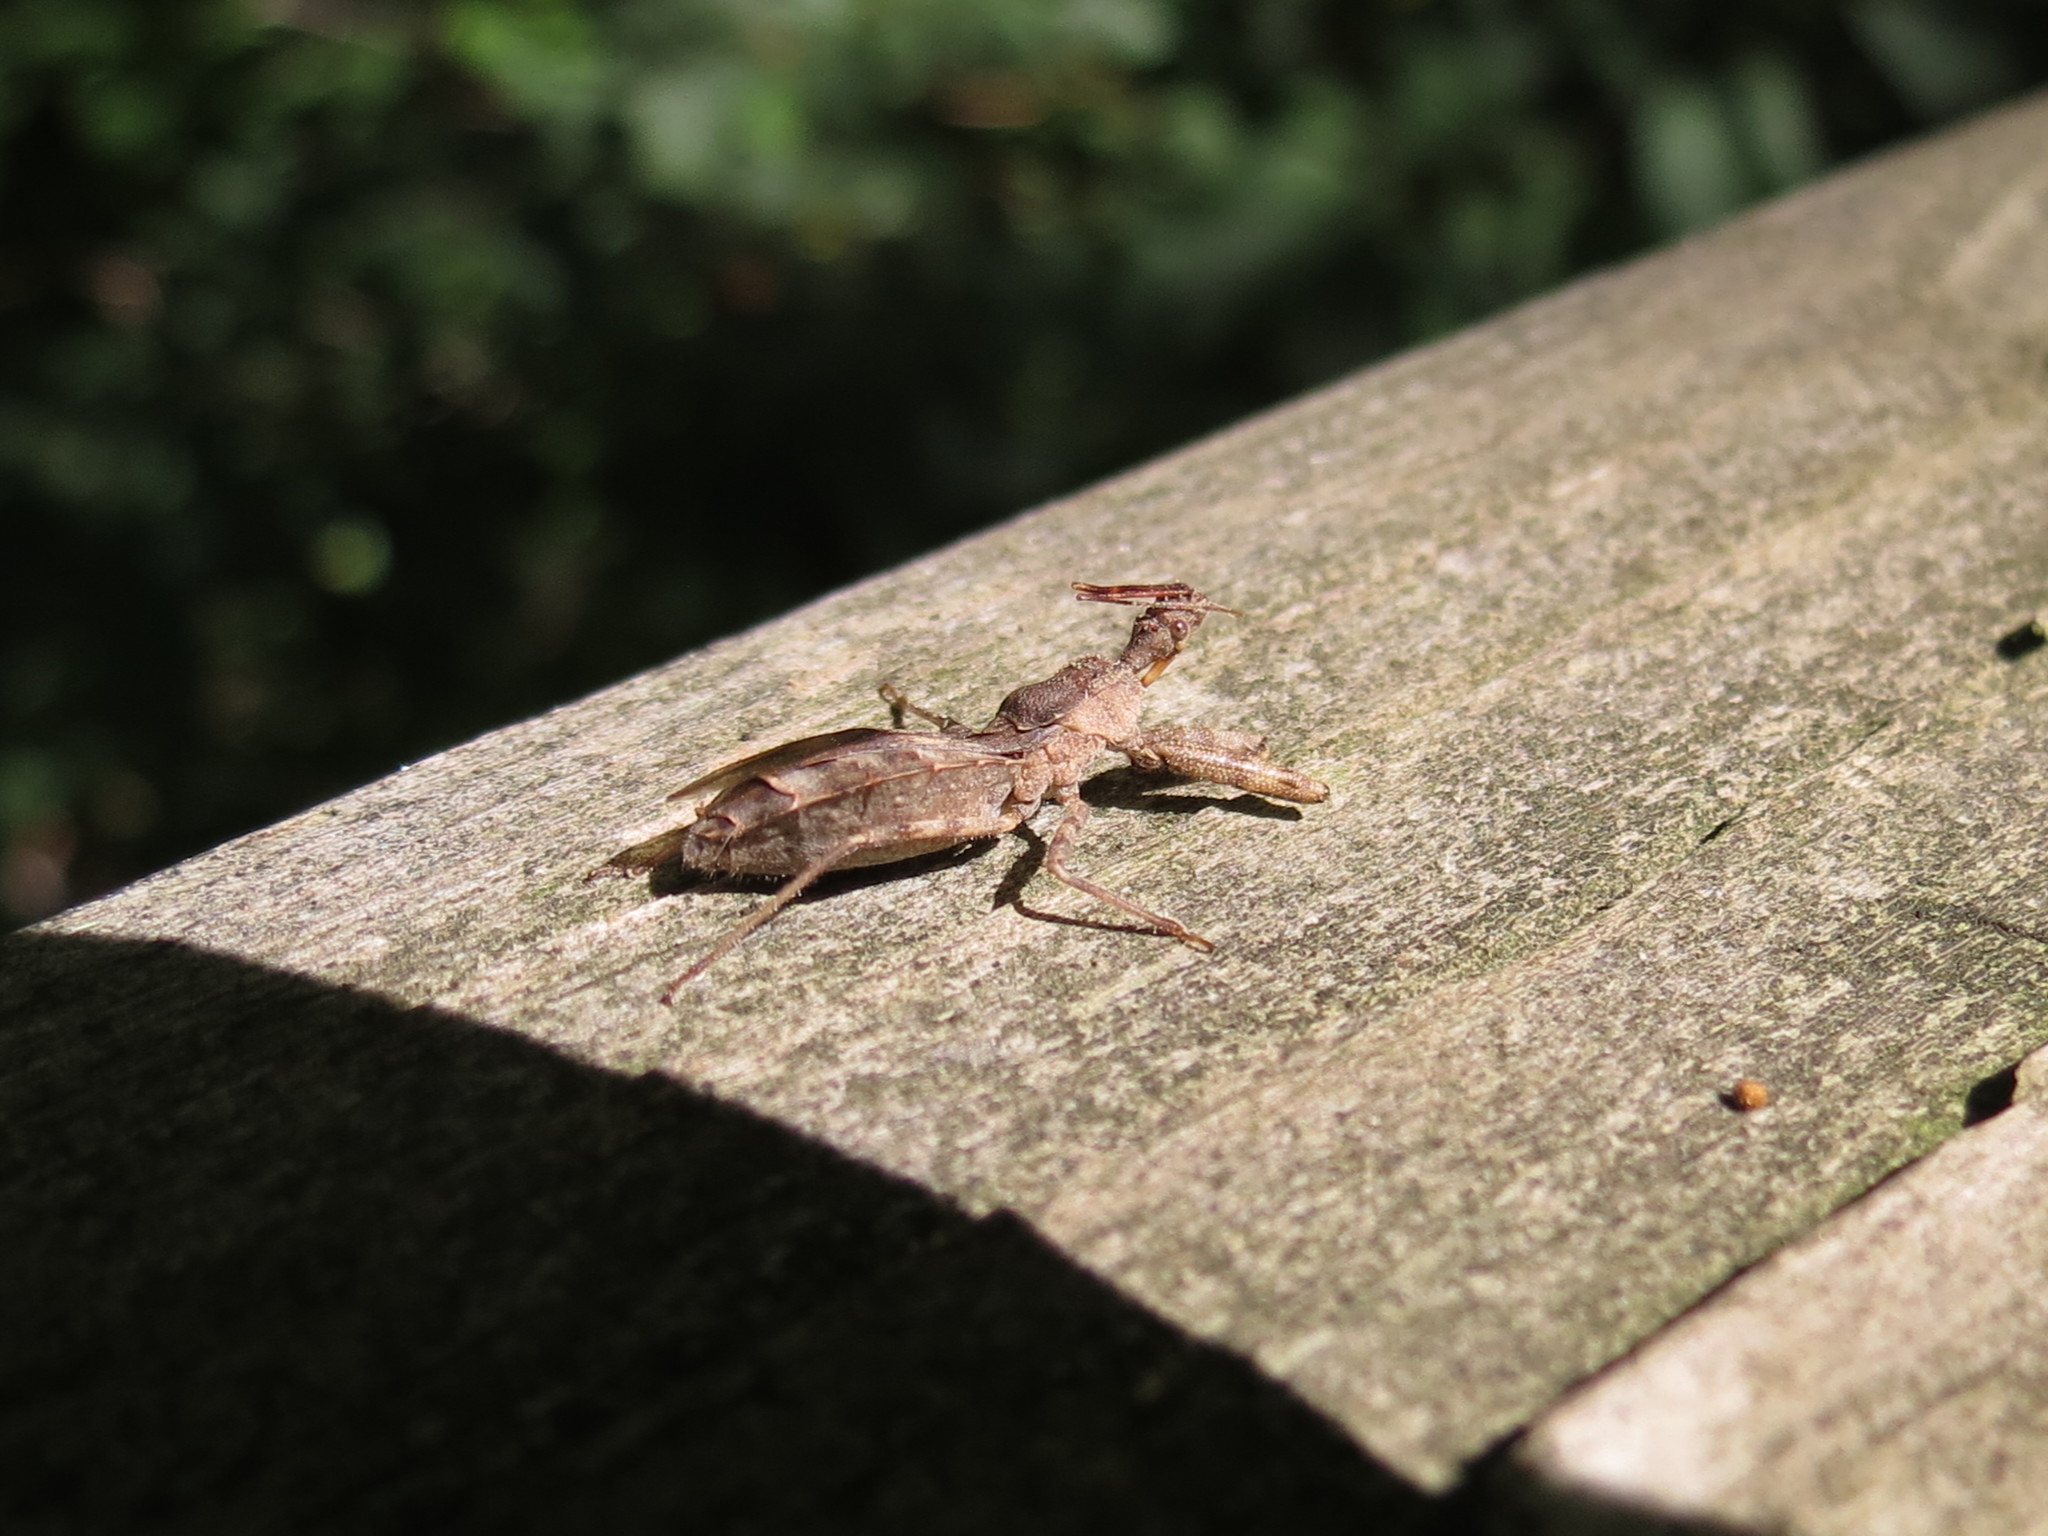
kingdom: Animalia
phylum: Arthropoda
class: Insecta
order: Hemiptera
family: Reduviidae
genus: Acholla
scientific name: Acholla multispinosa
